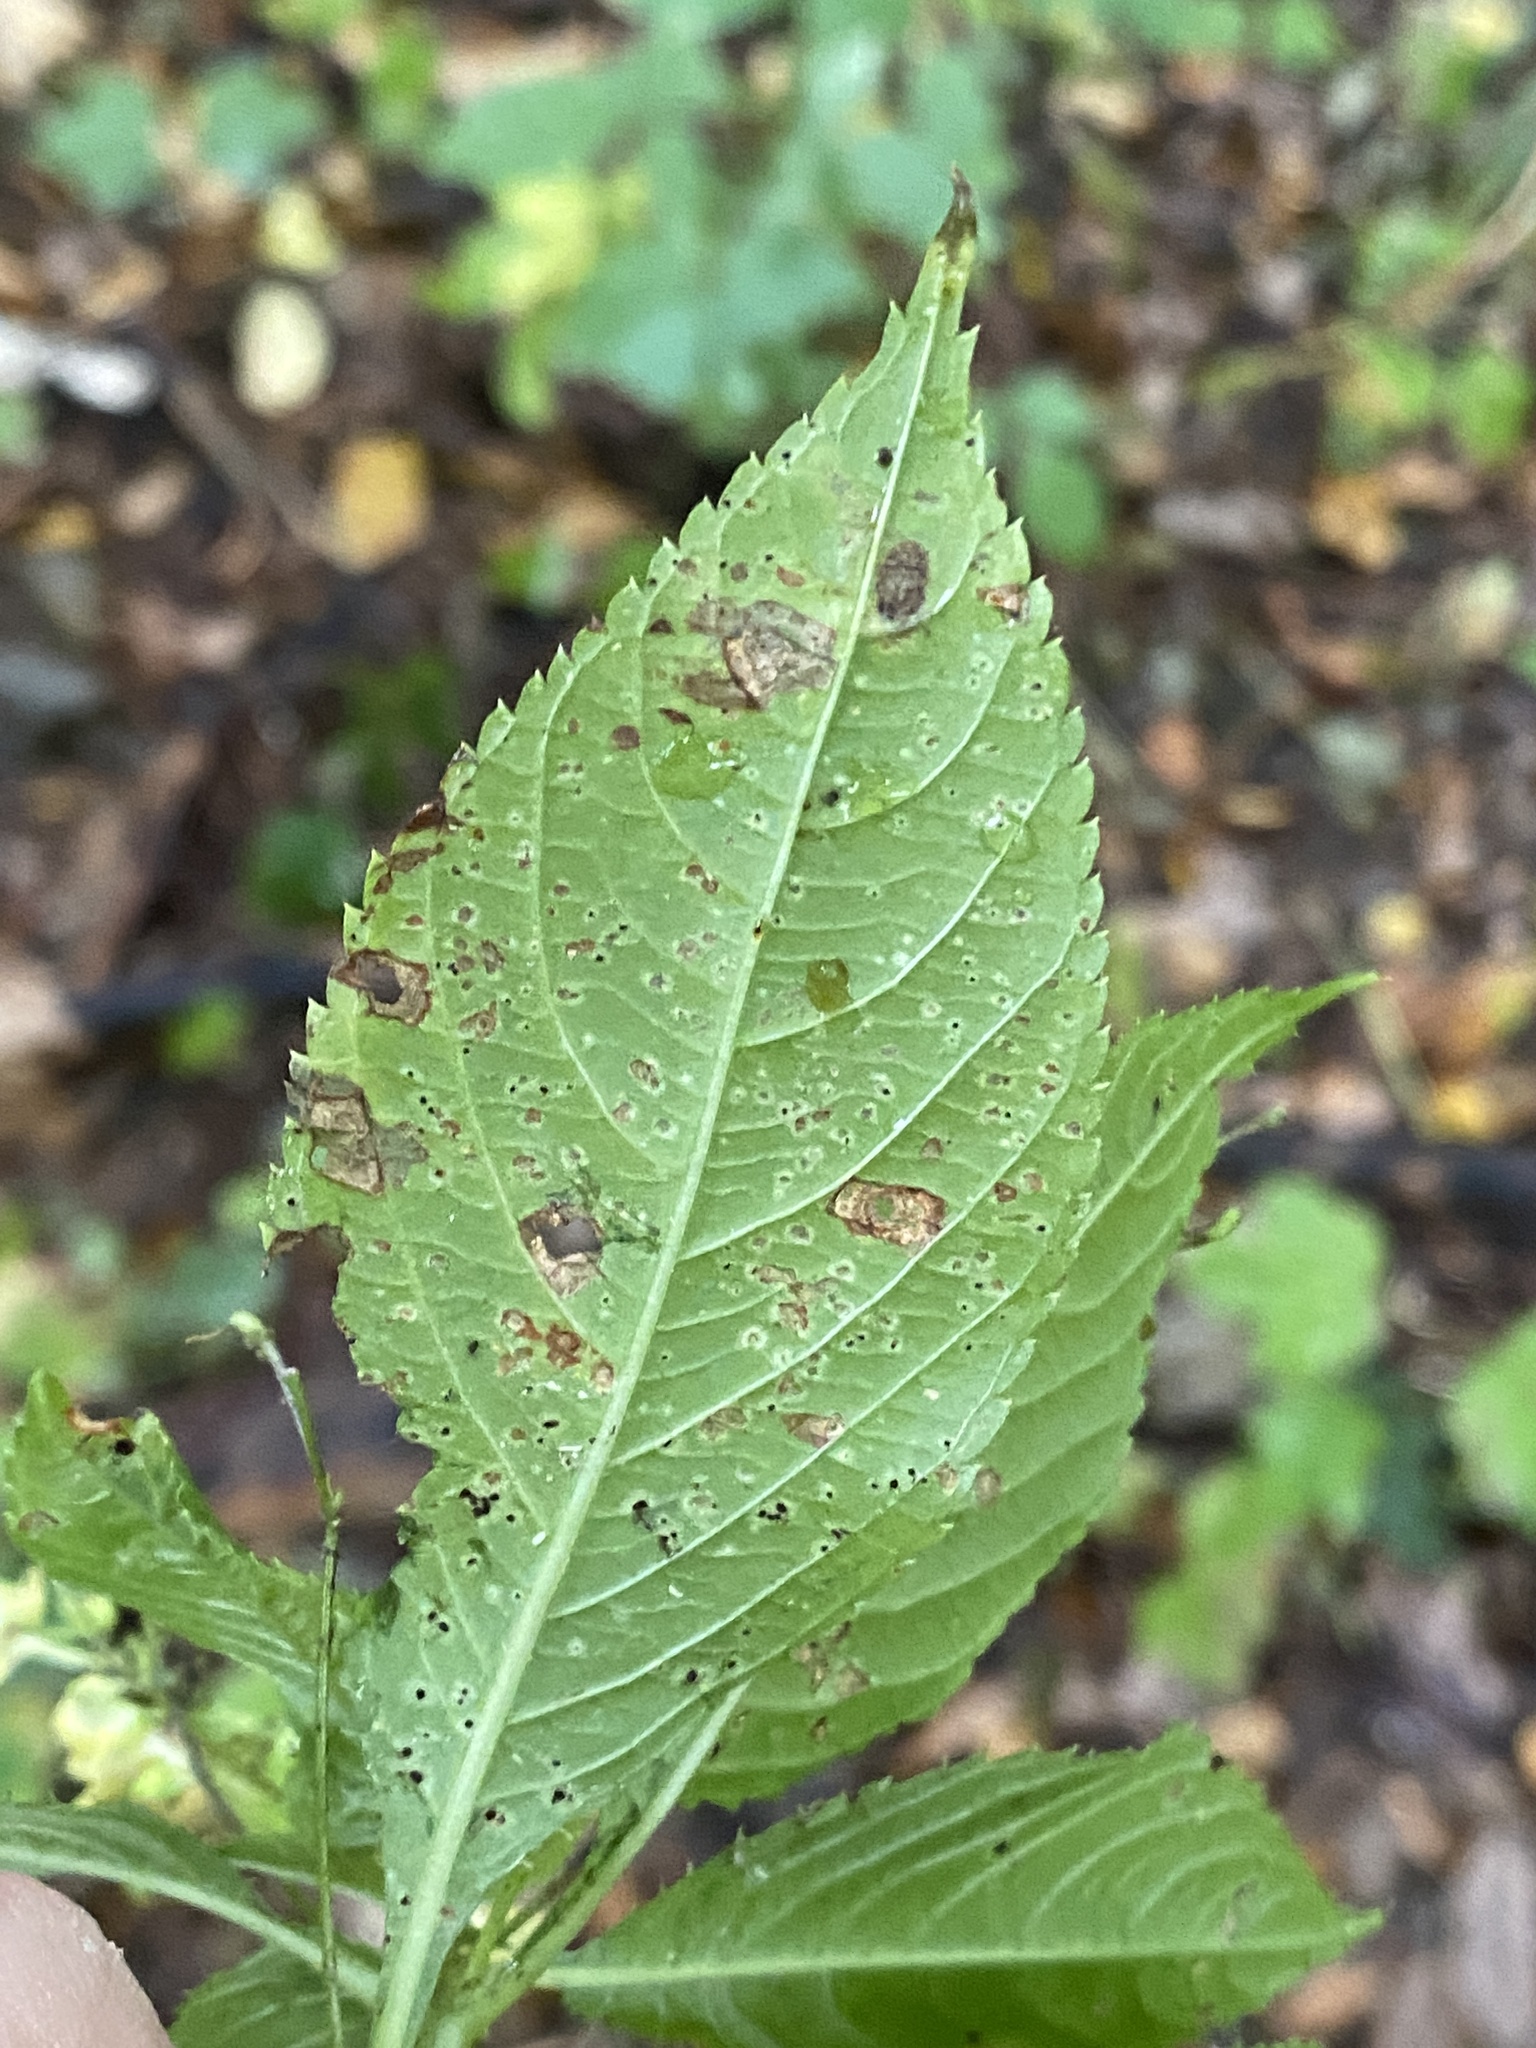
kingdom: Fungi
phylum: Basidiomycota
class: Pucciniomycetes
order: Pucciniales
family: Pucciniaceae
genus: Puccinia
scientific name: Puccinia komarovii
